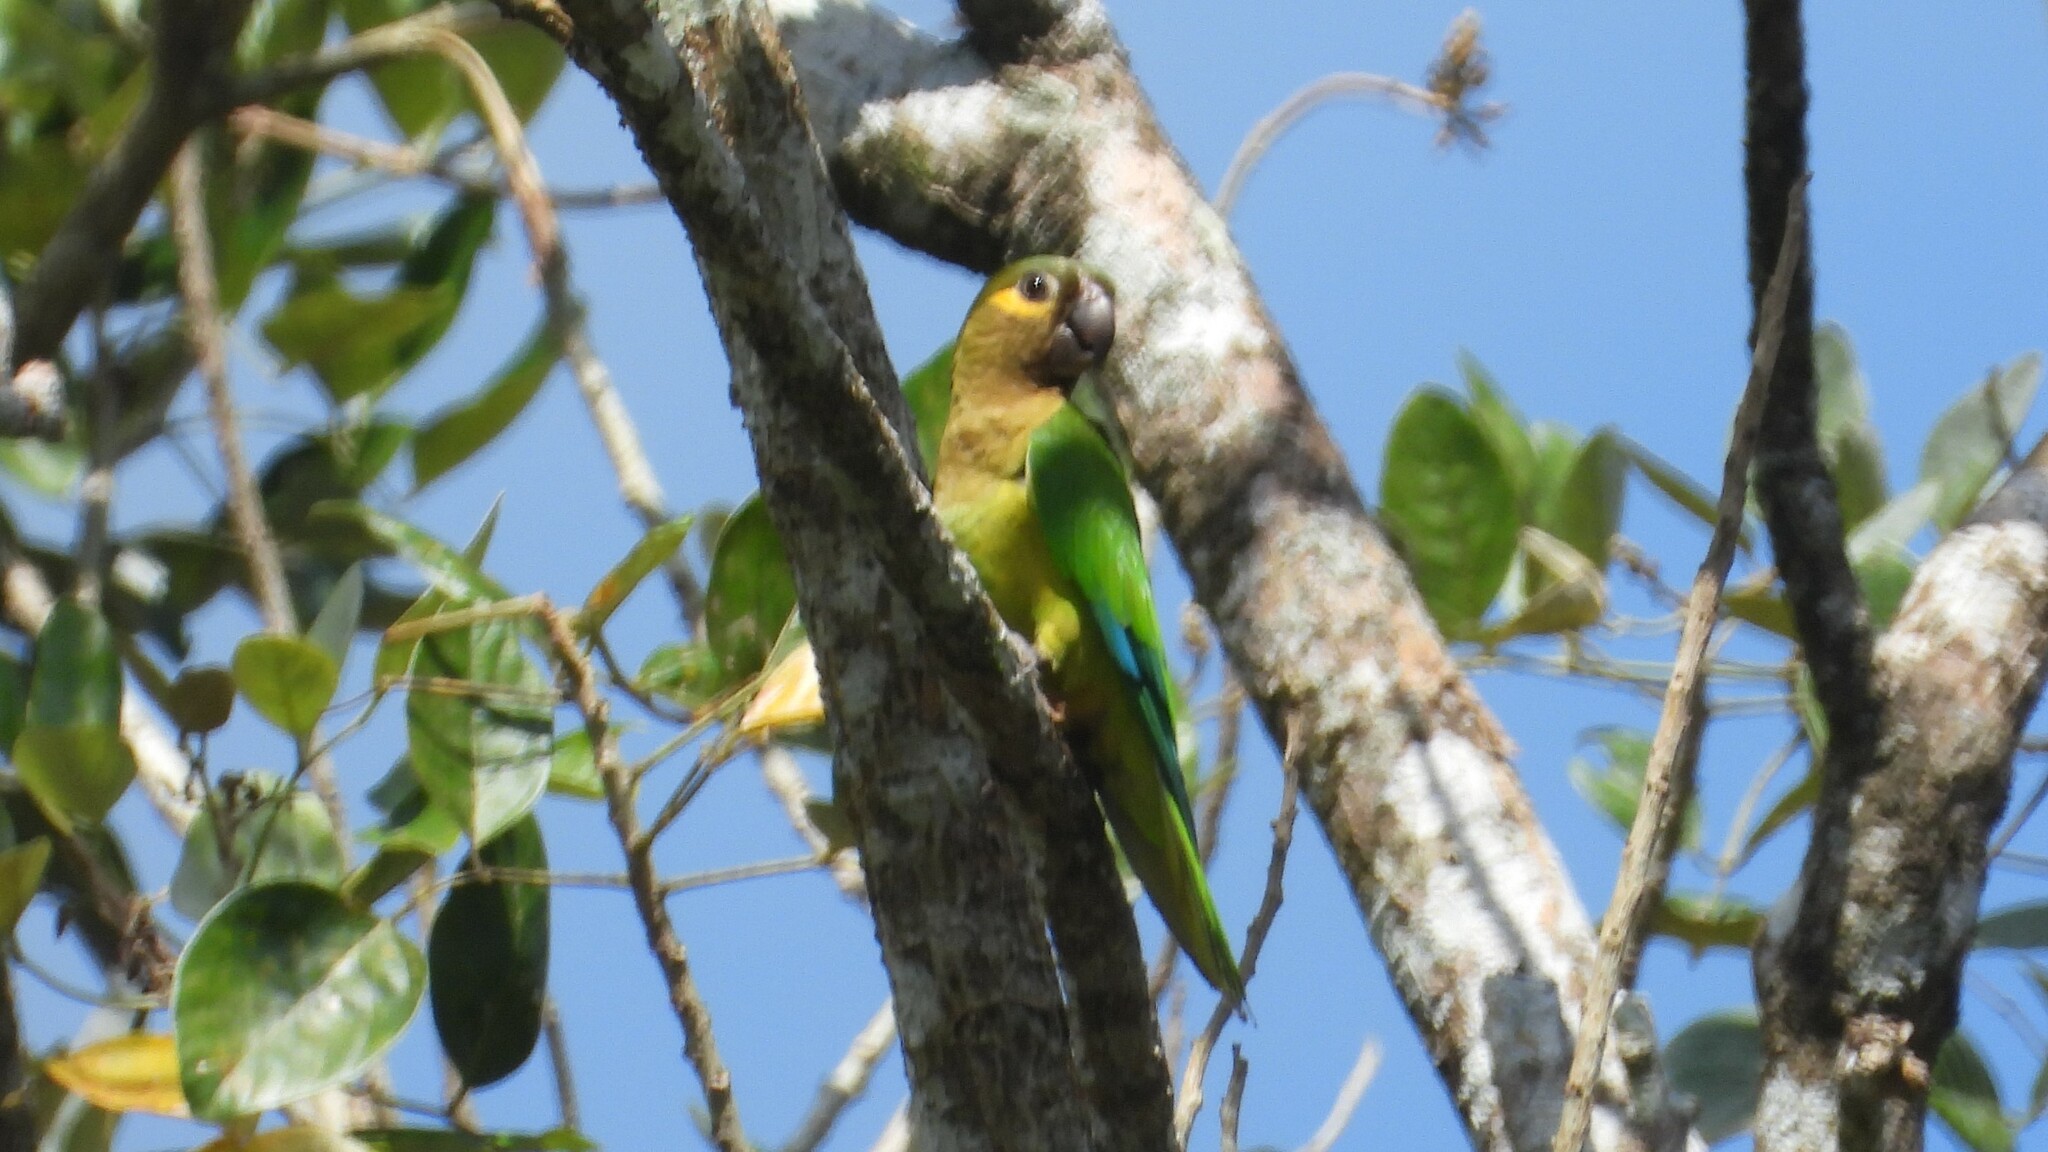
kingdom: Animalia
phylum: Chordata
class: Aves
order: Psittaciformes
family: Psittacidae
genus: Aratinga
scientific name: Aratinga pertinax
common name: Brown-throated parakeet
